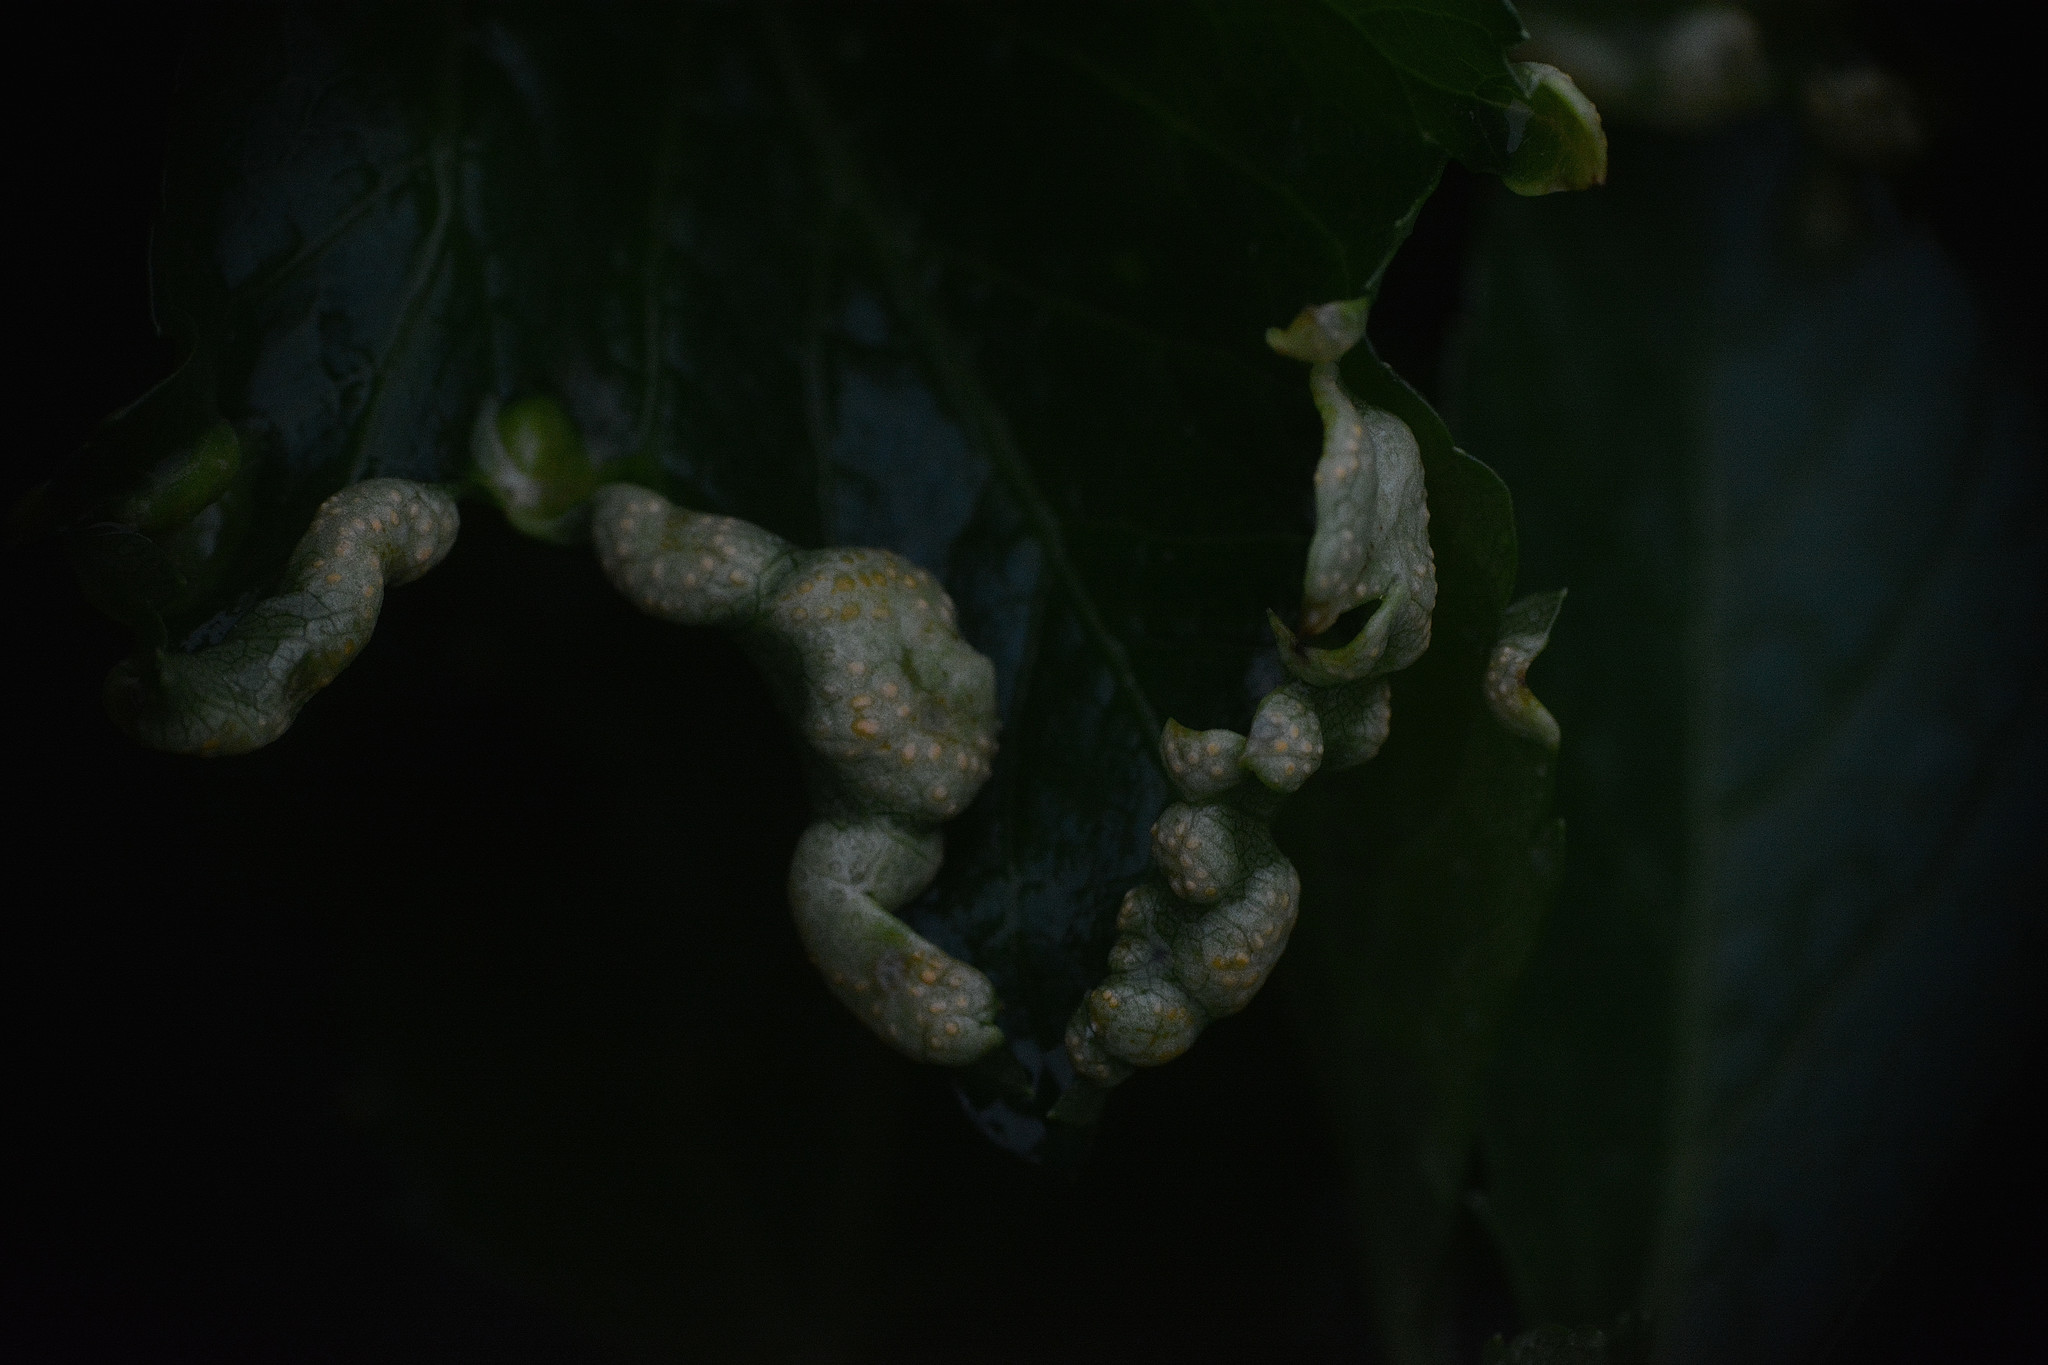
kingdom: Fungi
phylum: Basidiomycota
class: Pucciniomycetes
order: Pucciniales
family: Pucciniaceae
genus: Puccinia
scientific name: Puccinia smyrnii
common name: Alexanders rust
